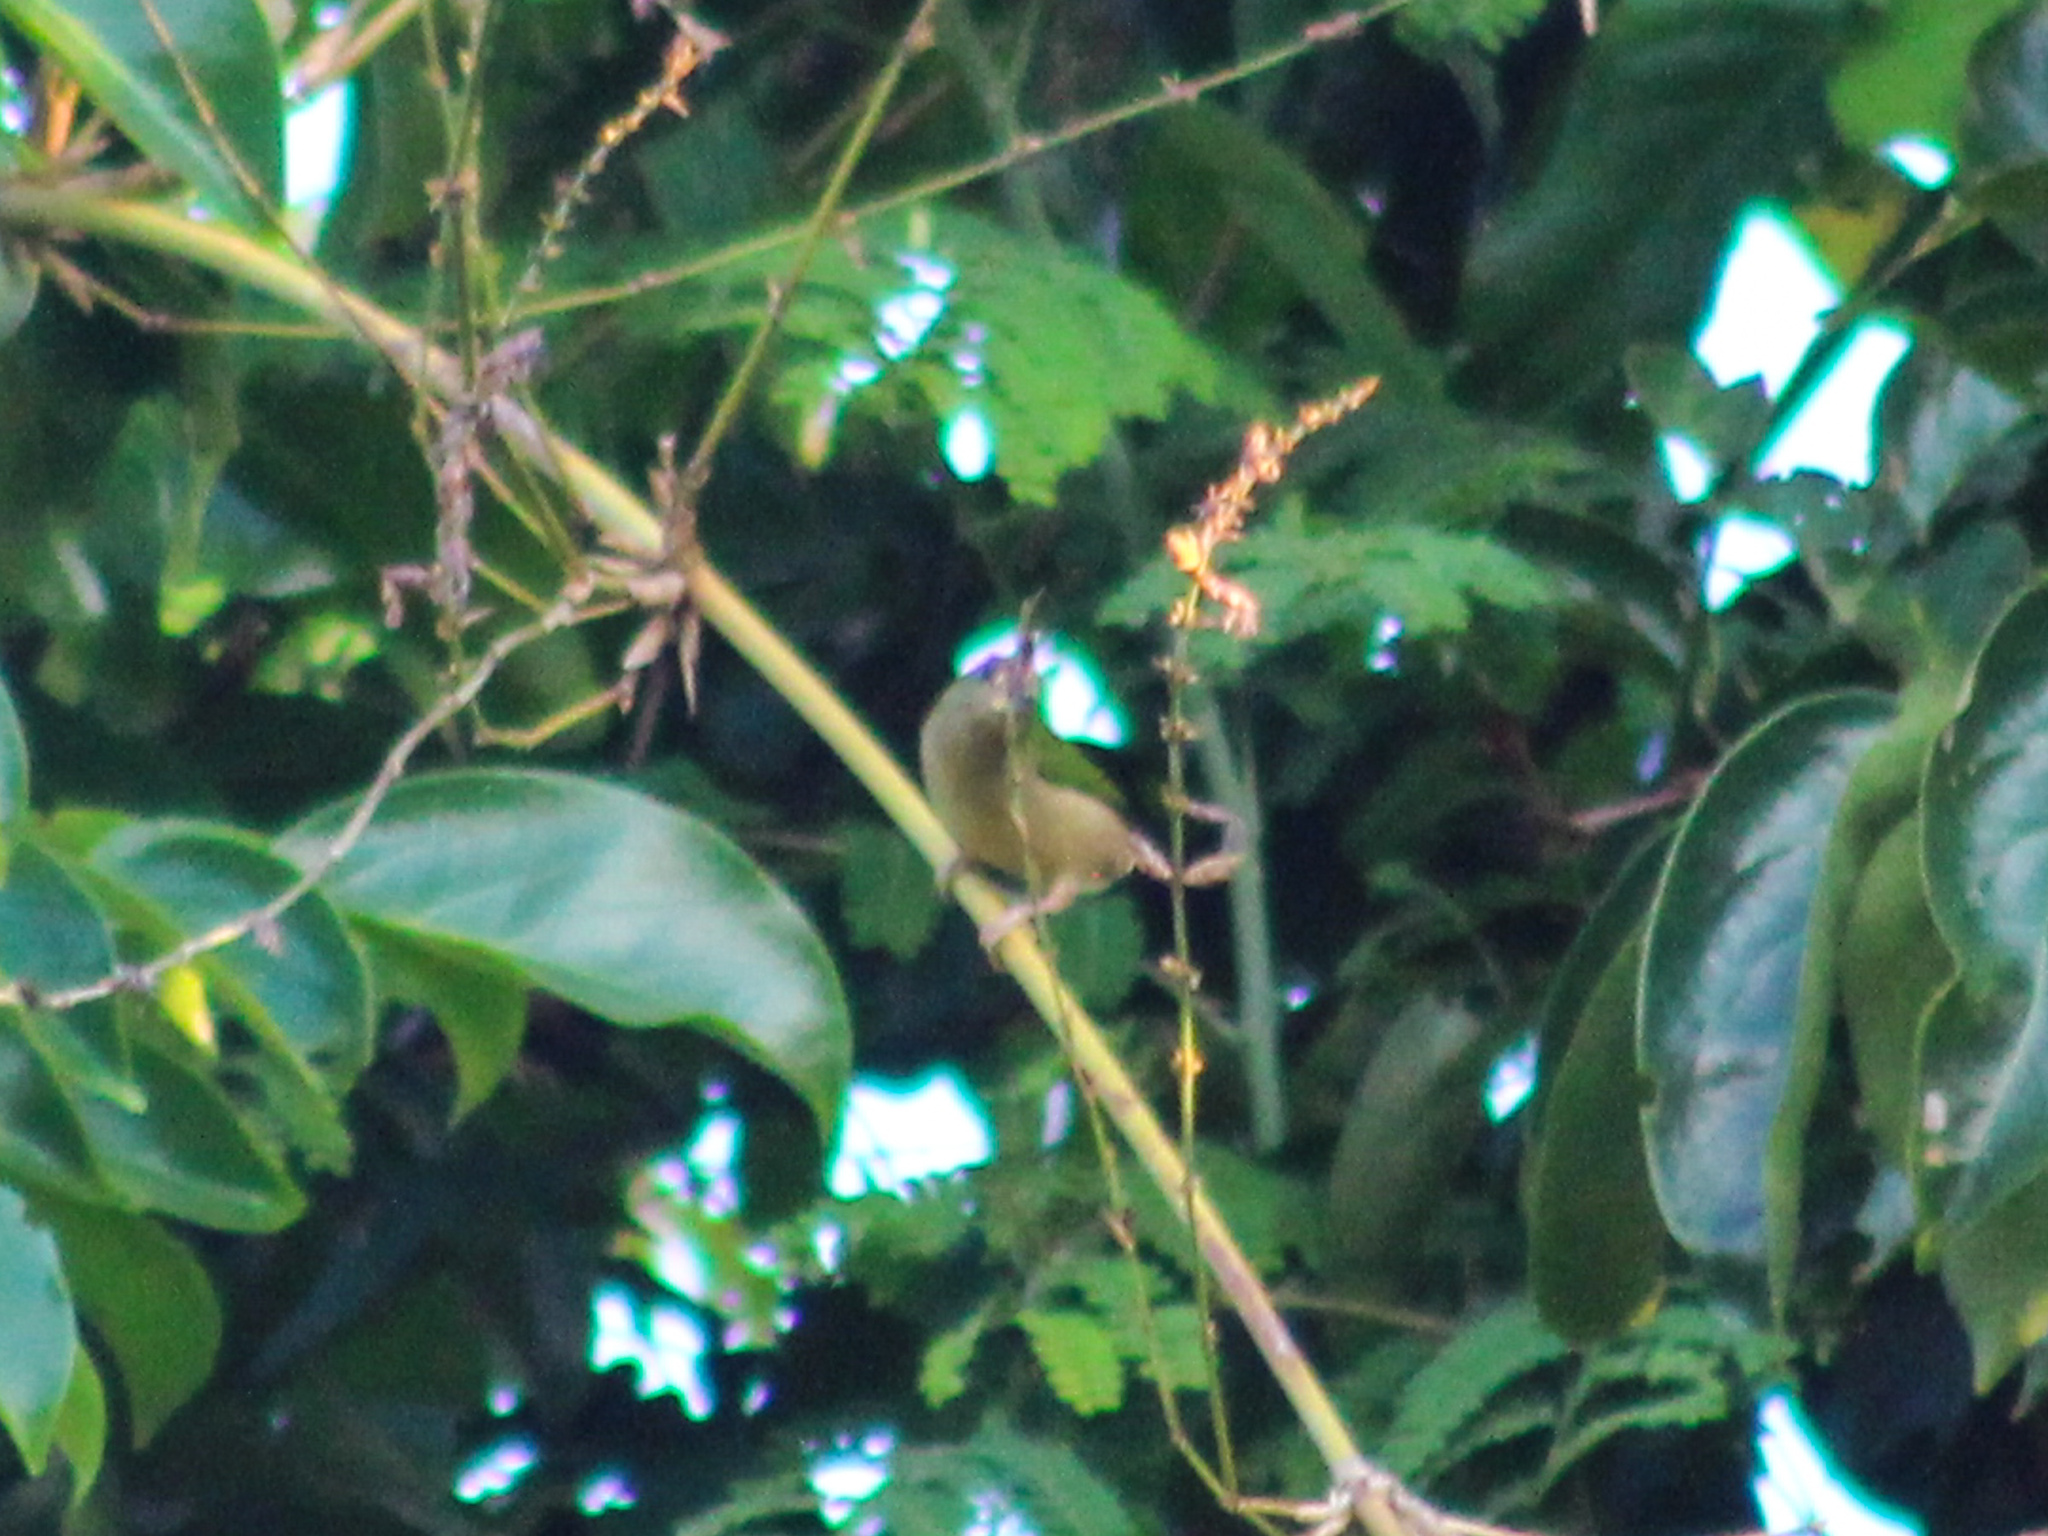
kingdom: Animalia
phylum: Chordata
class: Aves
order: Passeriformes
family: Estrildidae
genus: Erythrura
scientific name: Erythrura prasina
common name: Pin-tailed parrotfinch
